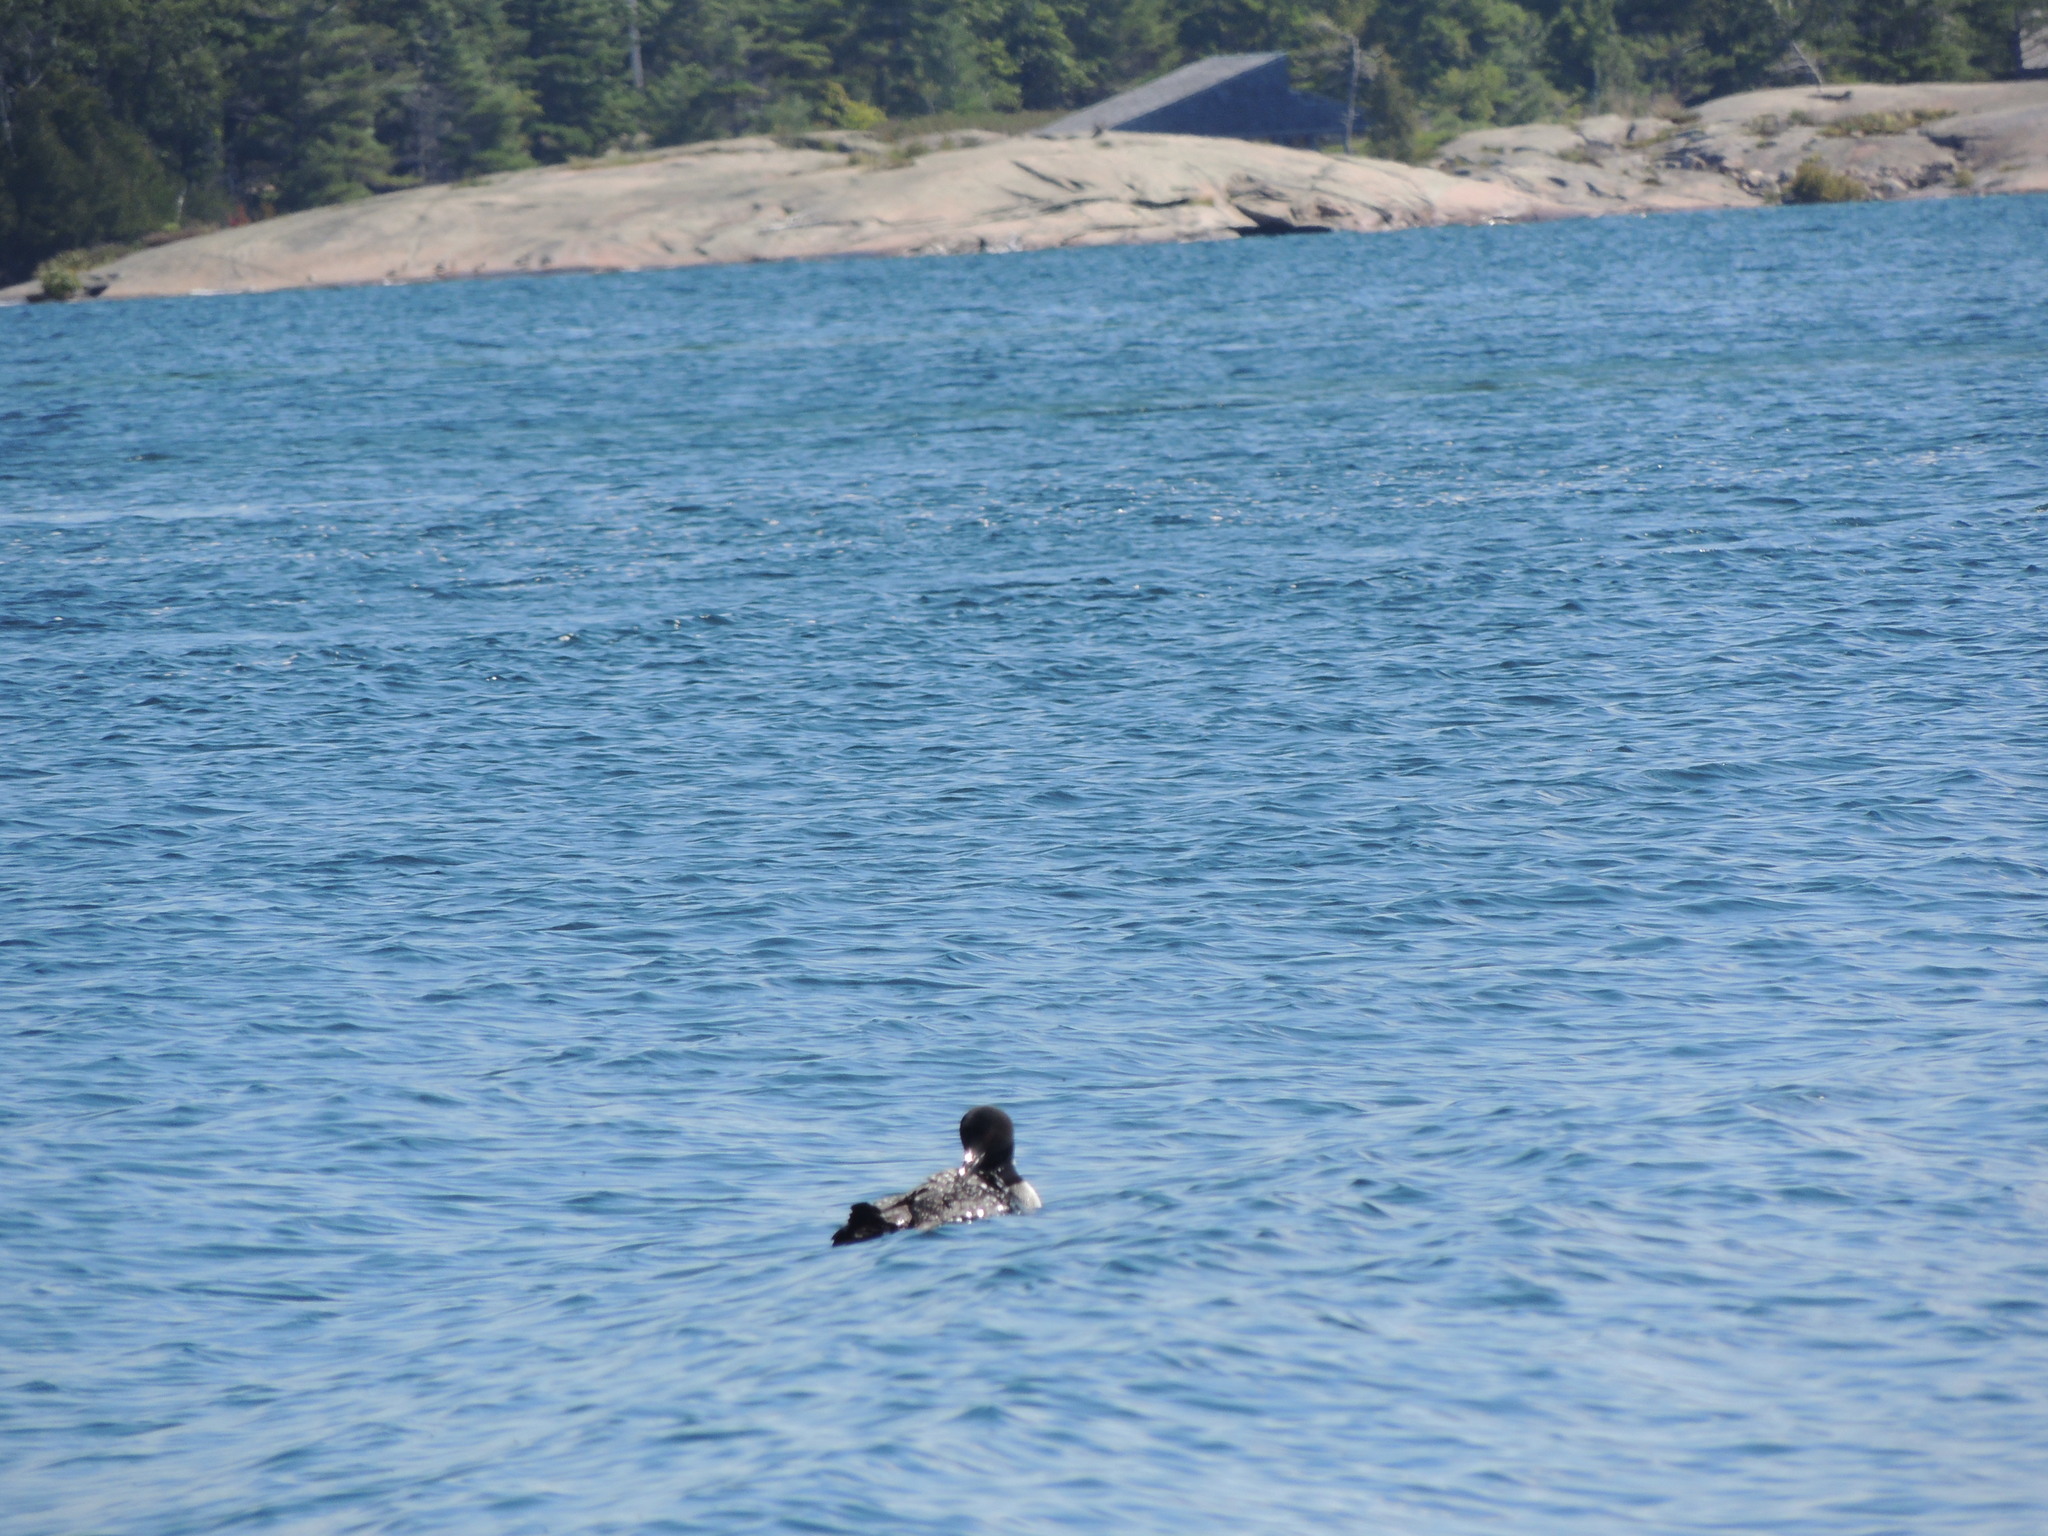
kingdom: Animalia
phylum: Chordata
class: Aves
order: Gaviiformes
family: Gaviidae
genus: Gavia
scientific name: Gavia immer
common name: Common loon
